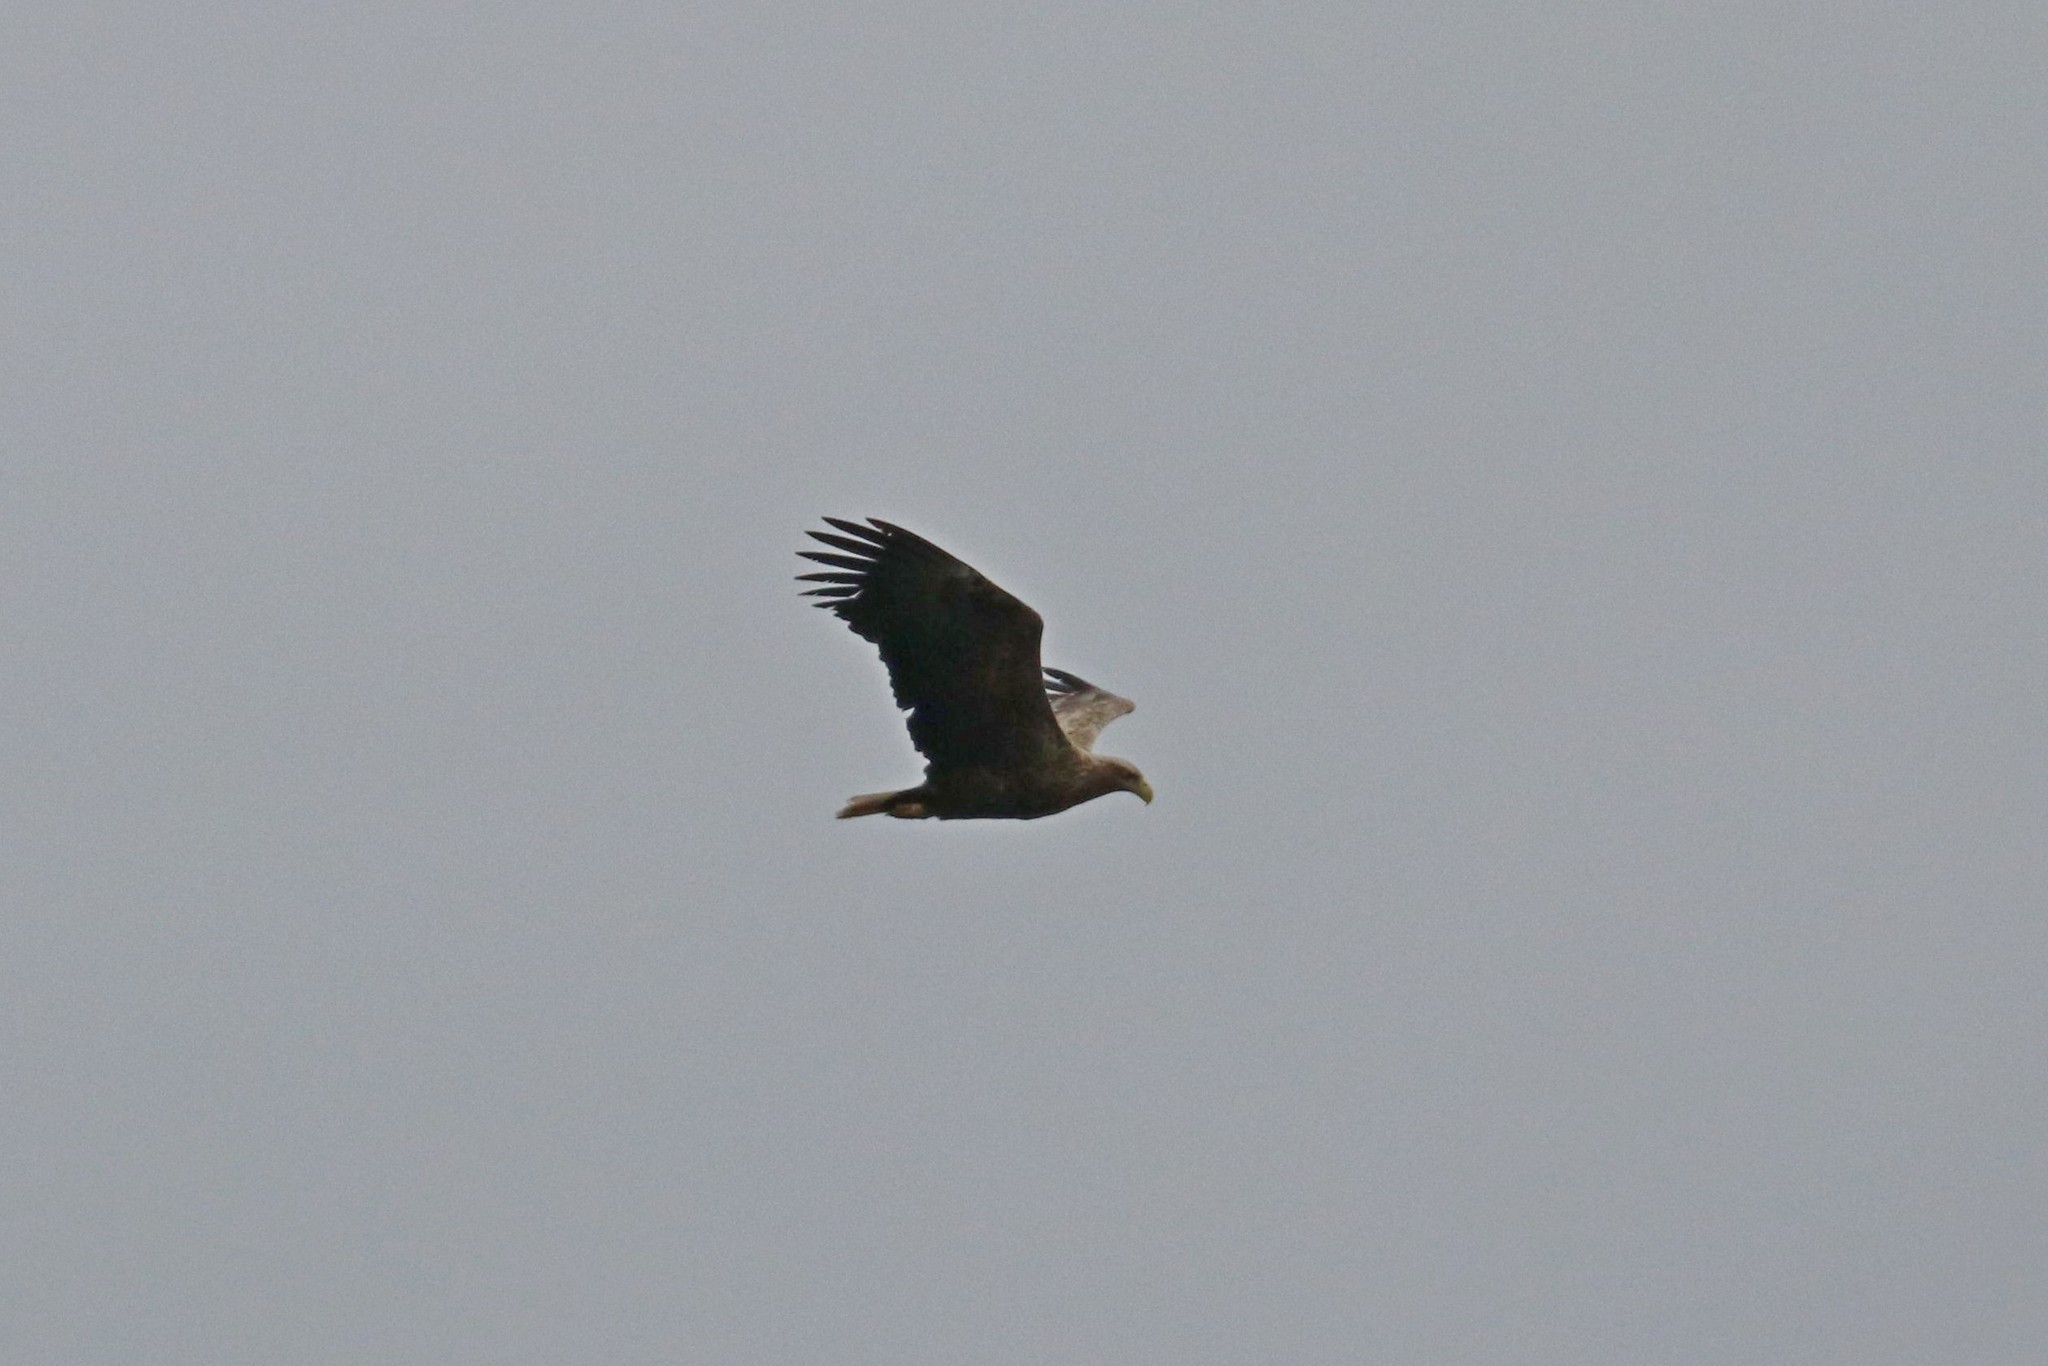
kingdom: Animalia
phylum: Chordata
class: Aves
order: Accipitriformes
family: Accipitridae
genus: Haliaeetus
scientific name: Haliaeetus albicilla
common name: White-tailed eagle
